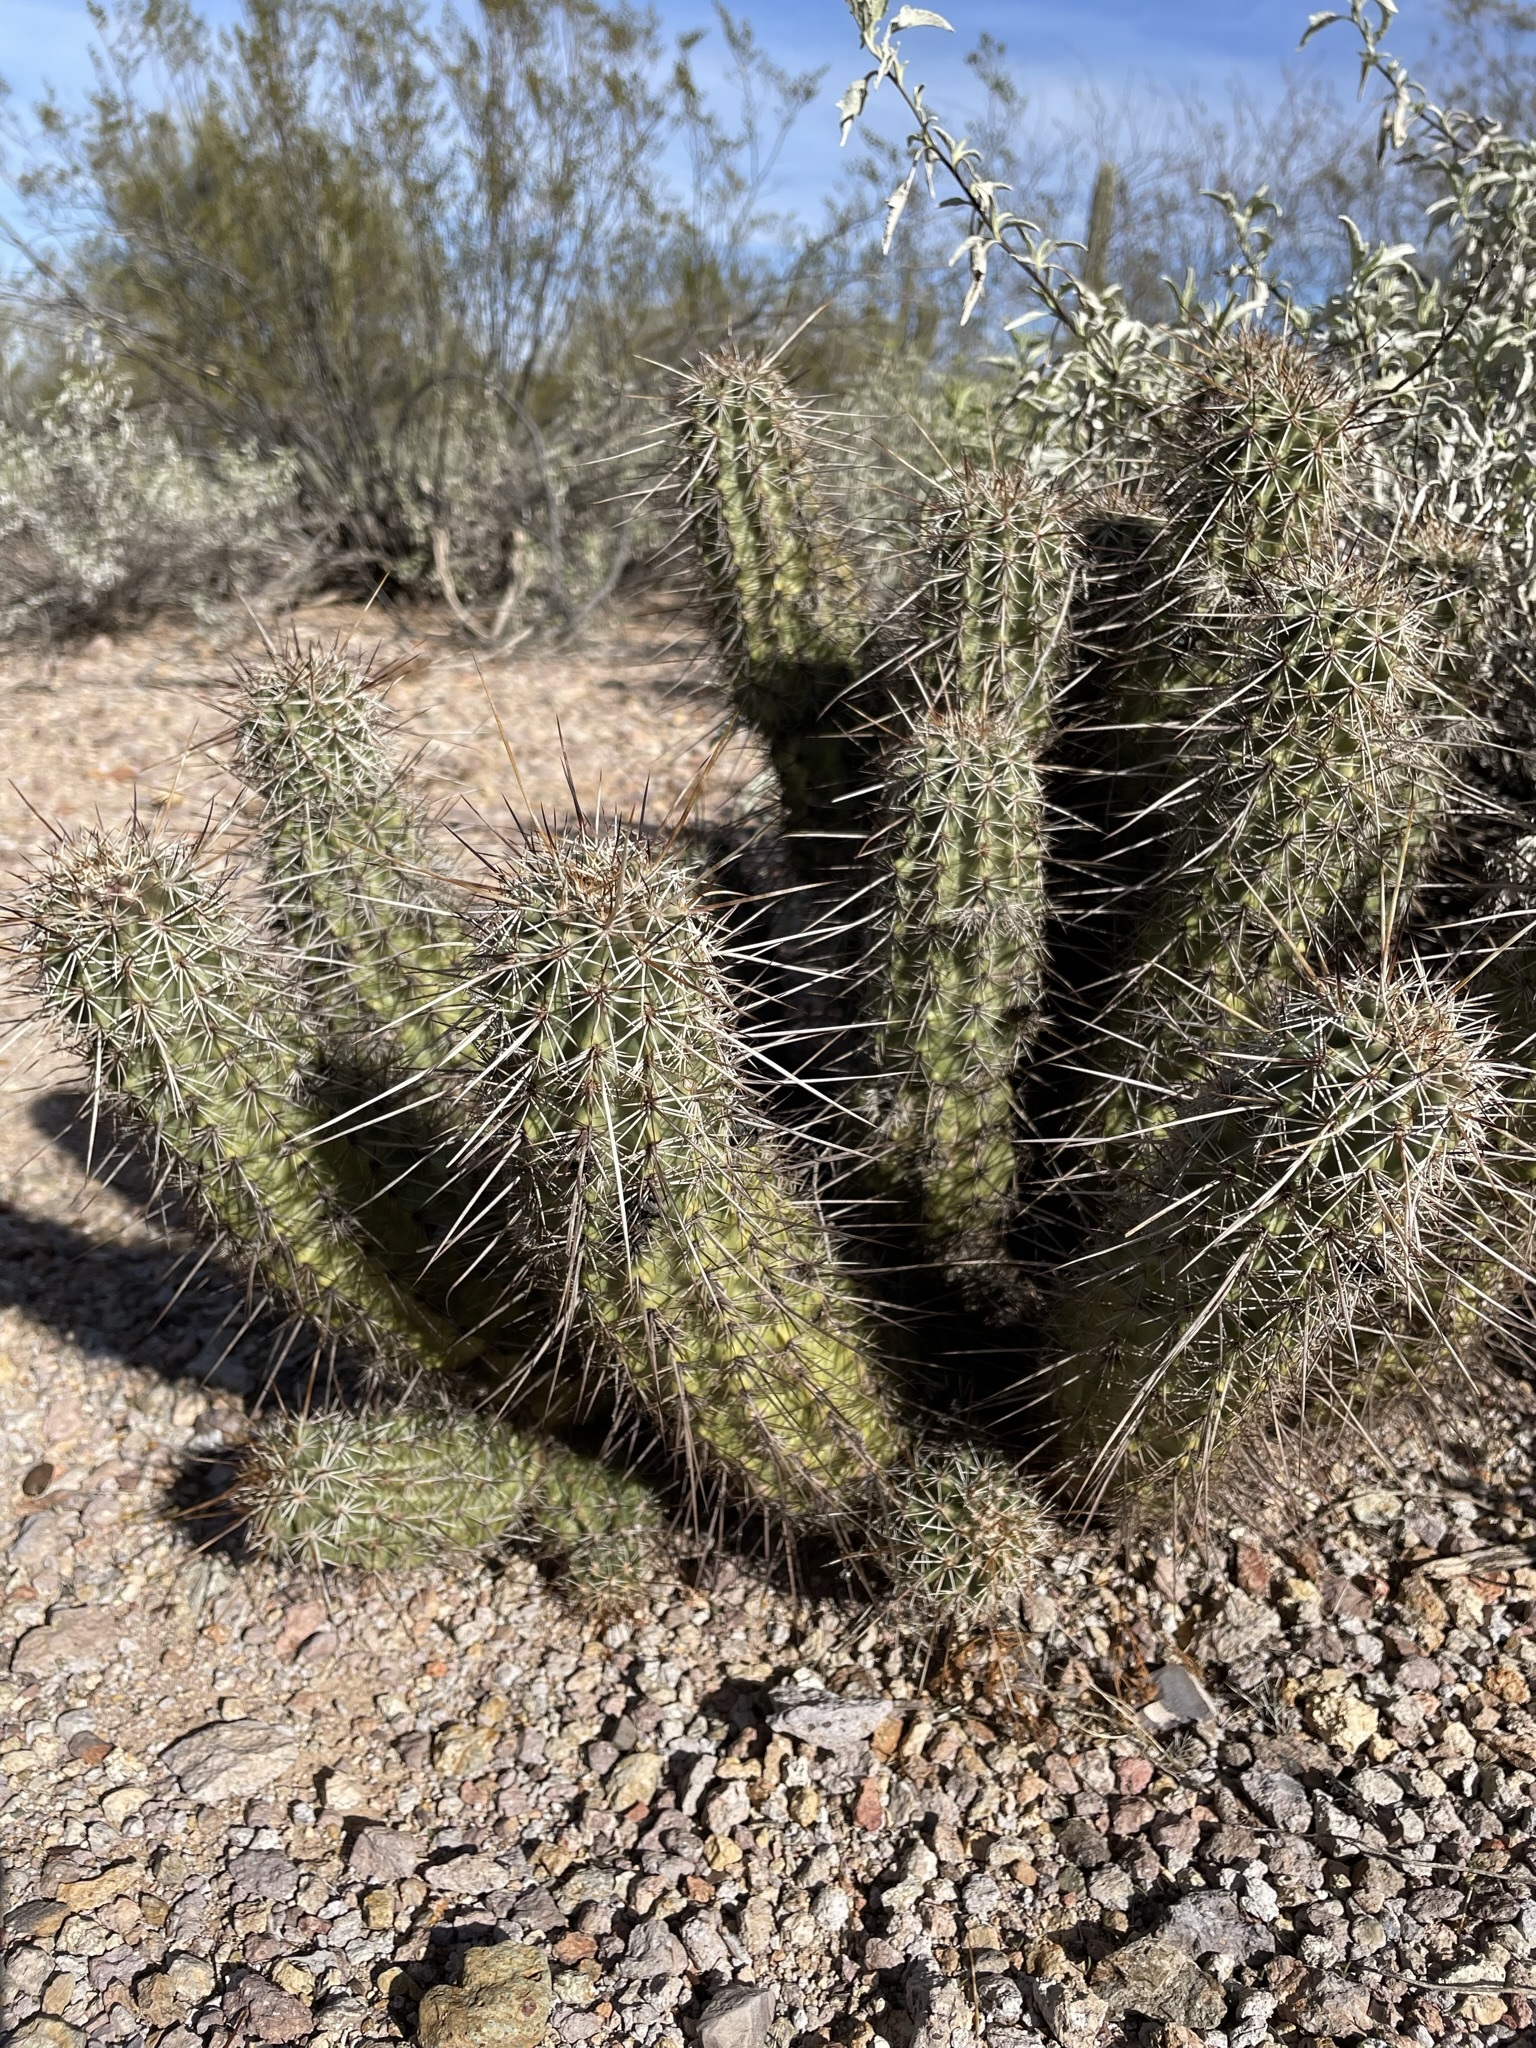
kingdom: Plantae
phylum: Tracheophyta
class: Magnoliopsida
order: Caryophyllales
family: Cactaceae
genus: Echinocereus
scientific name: Echinocereus fasciculatus
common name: Bundle hedgehog
